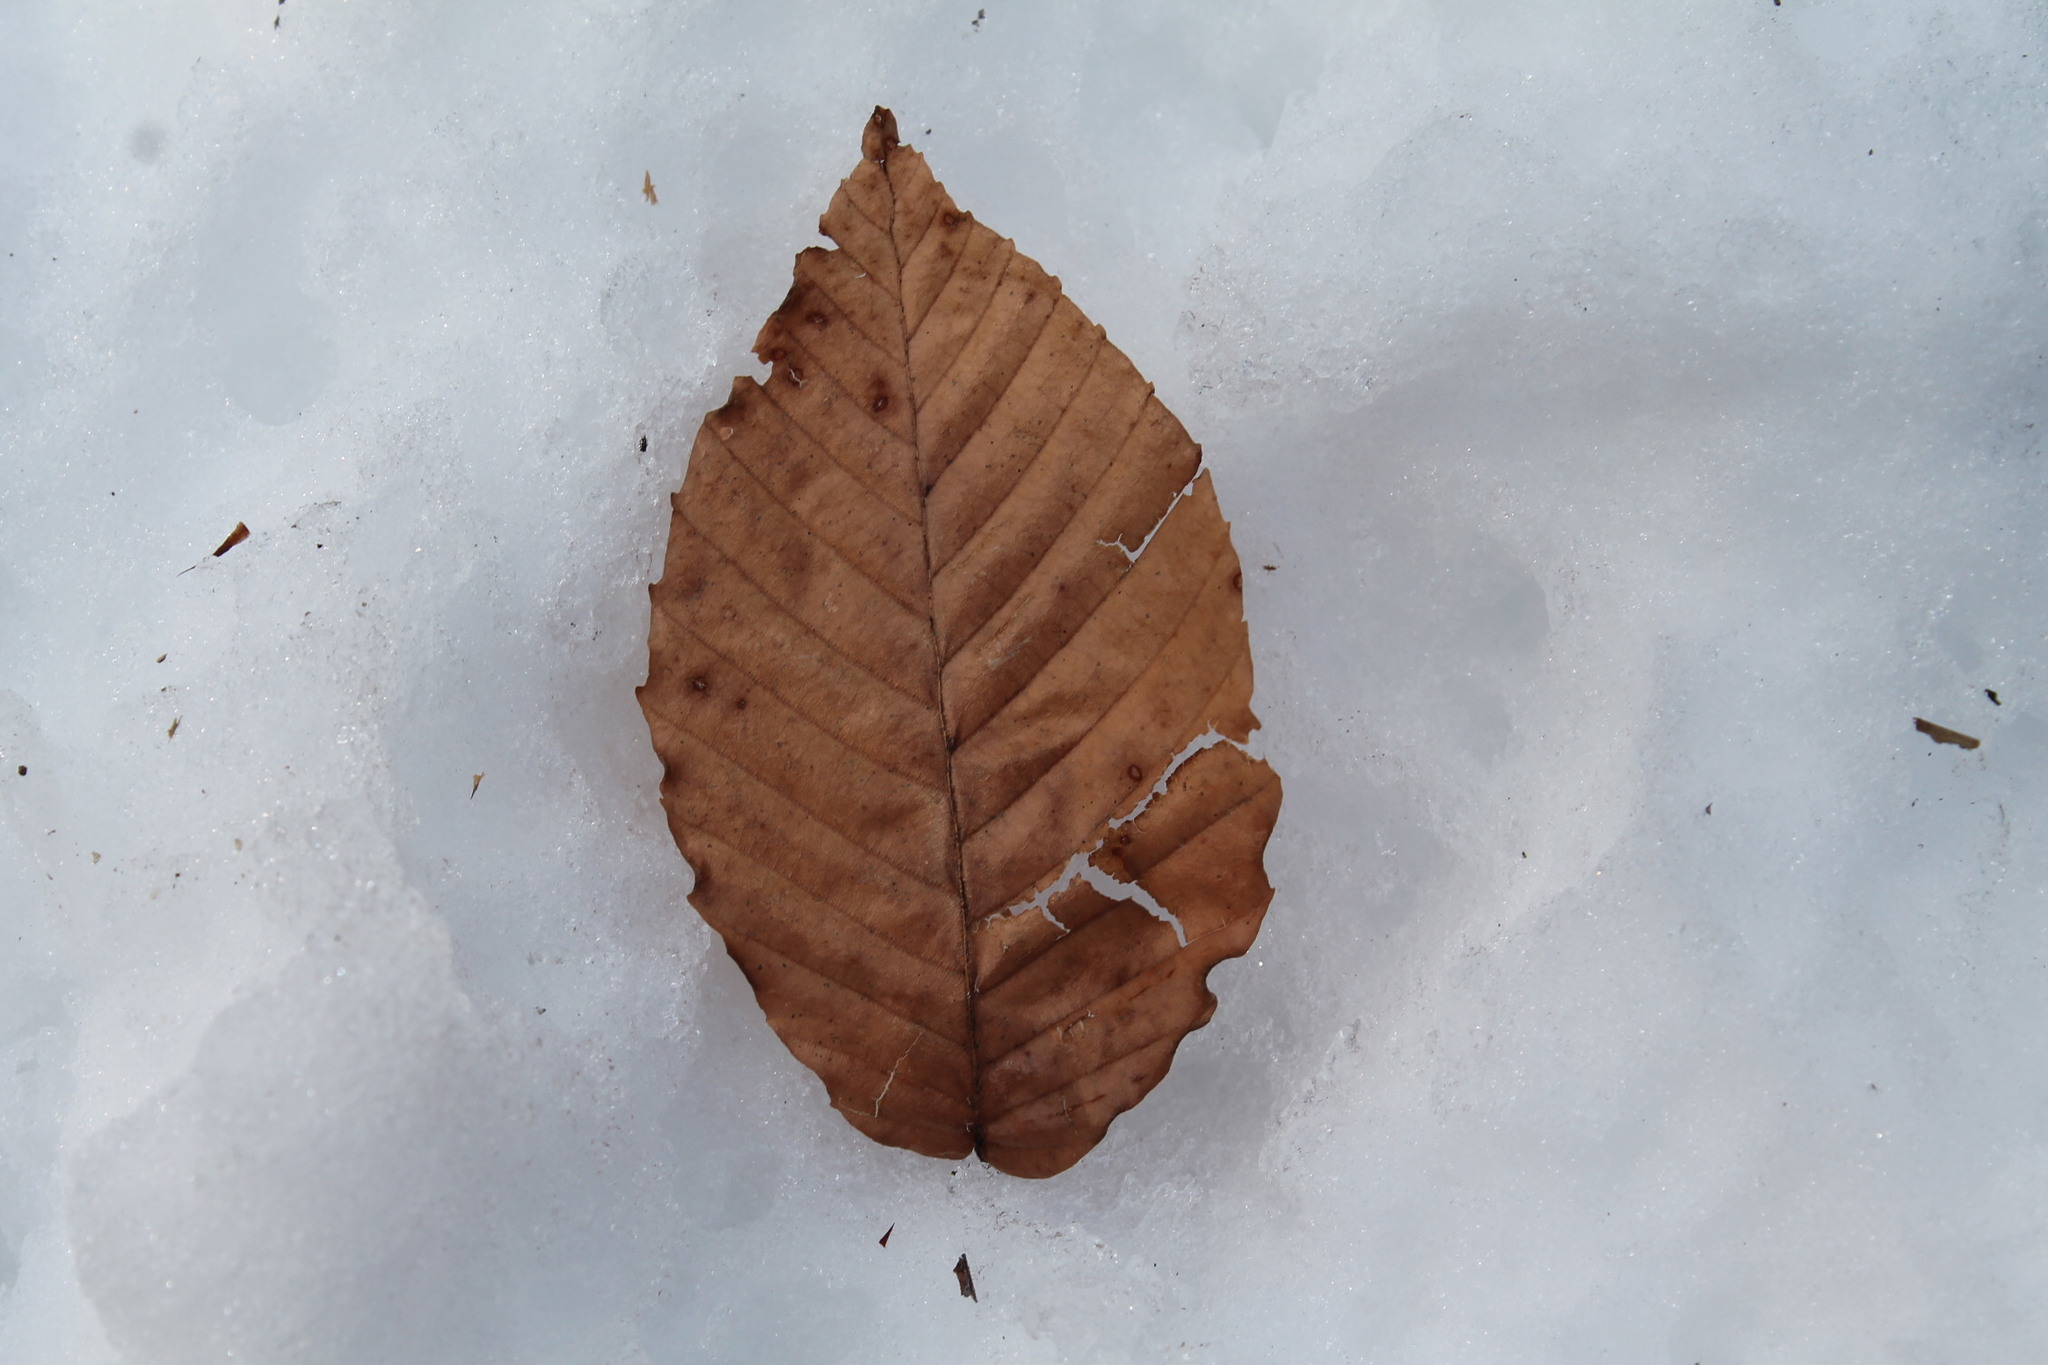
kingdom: Plantae
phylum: Tracheophyta
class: Magnoliopsida
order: Fagales
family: Fagaceae
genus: Fagus
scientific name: Fagus grandifolia
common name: American beech
